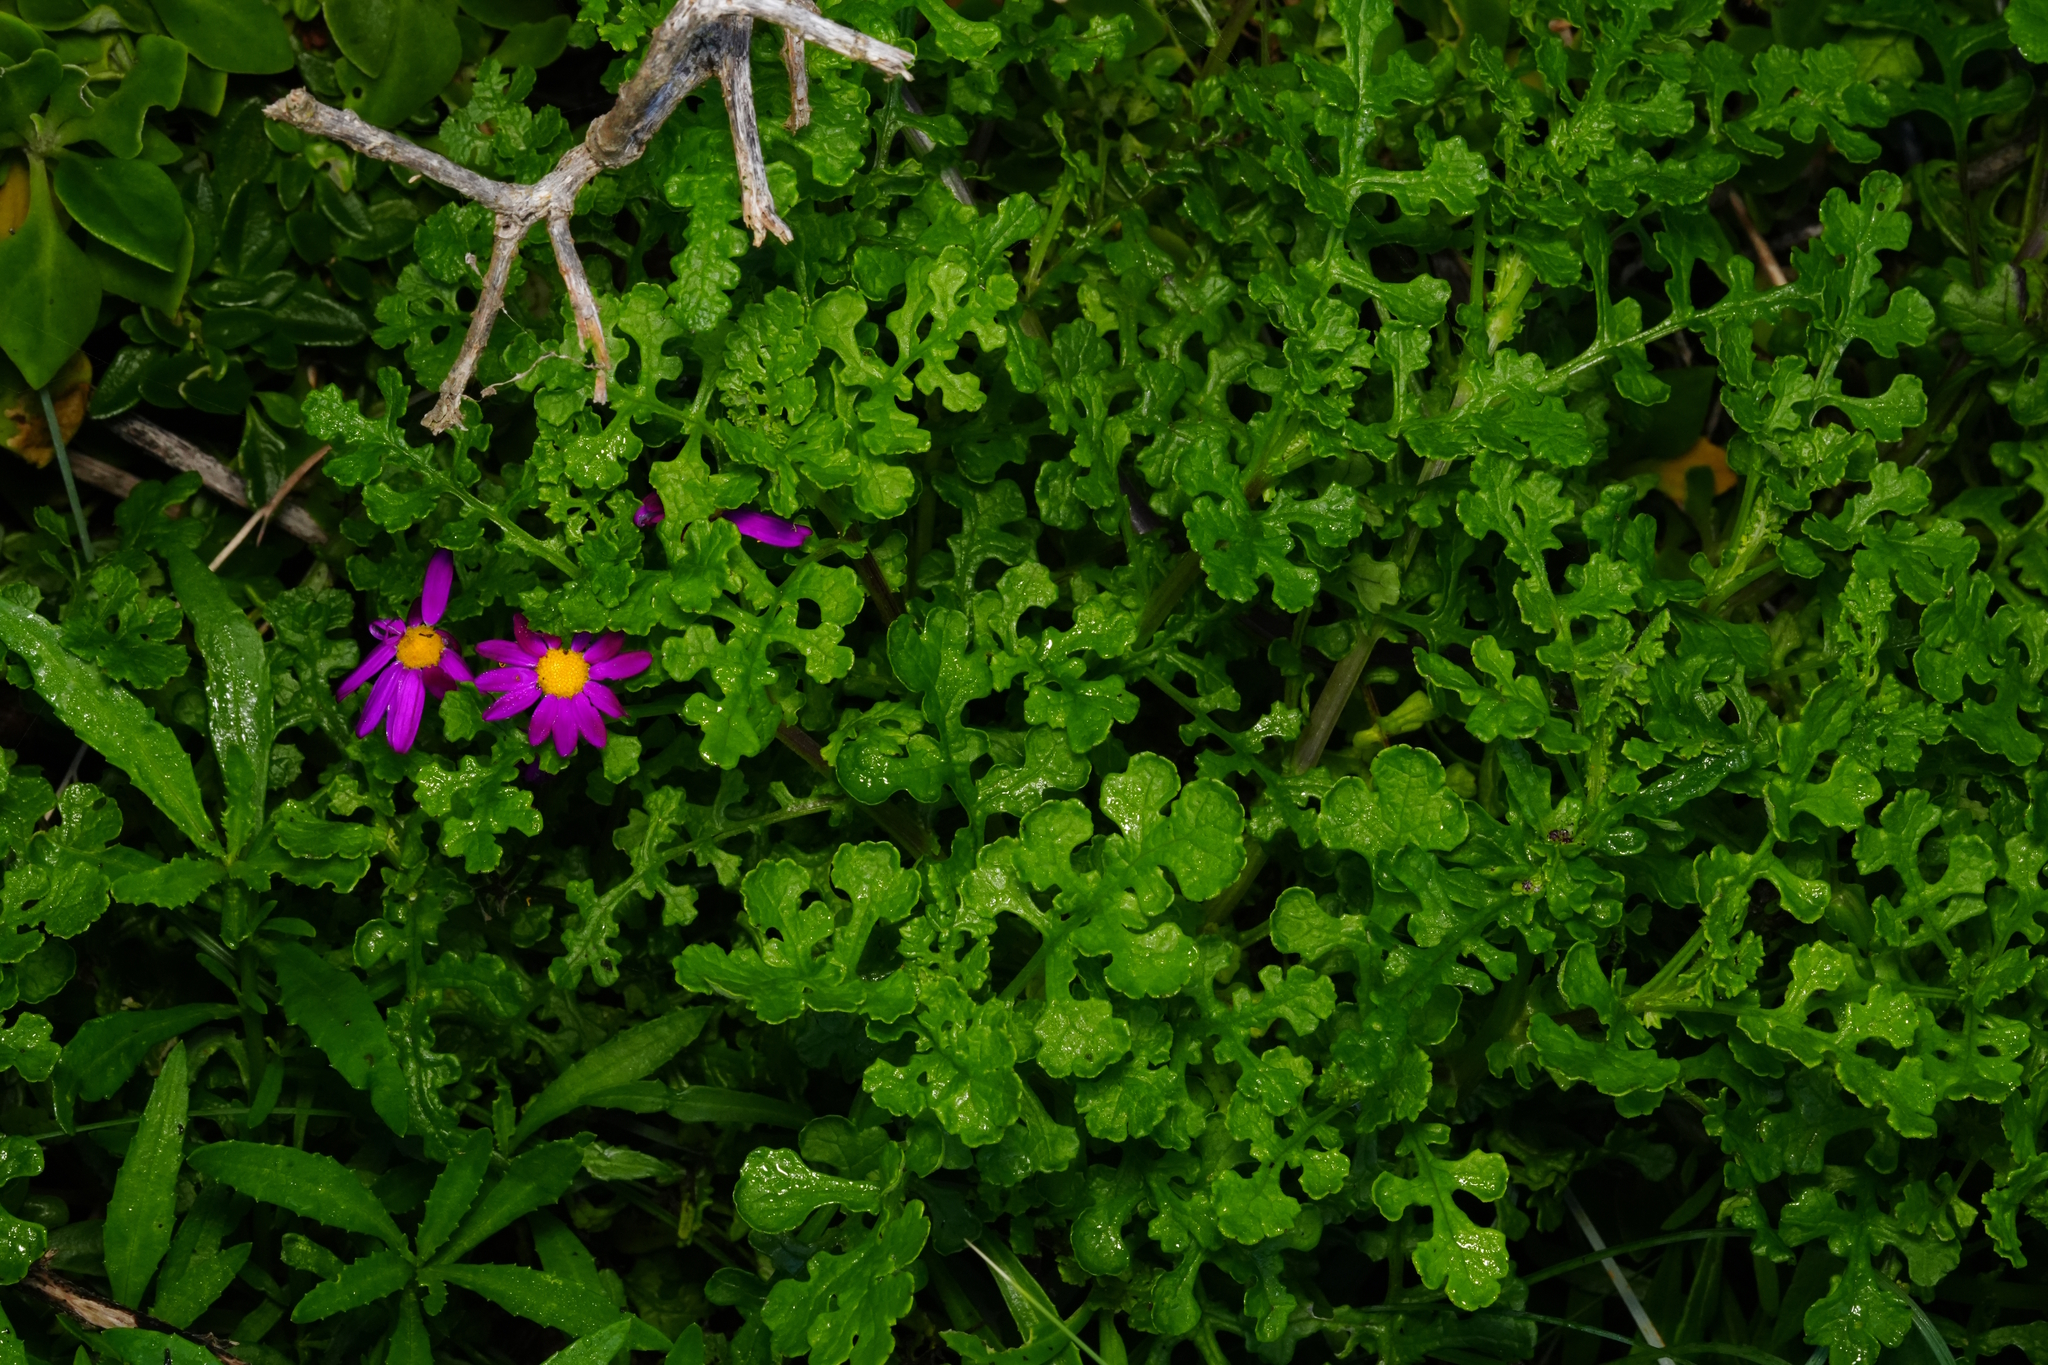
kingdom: Plantae
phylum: Tracheophyta
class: Magnoliopsida
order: Asterales
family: Asteraceae
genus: Senecio
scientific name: Senecio elegans
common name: Purple groundsel
